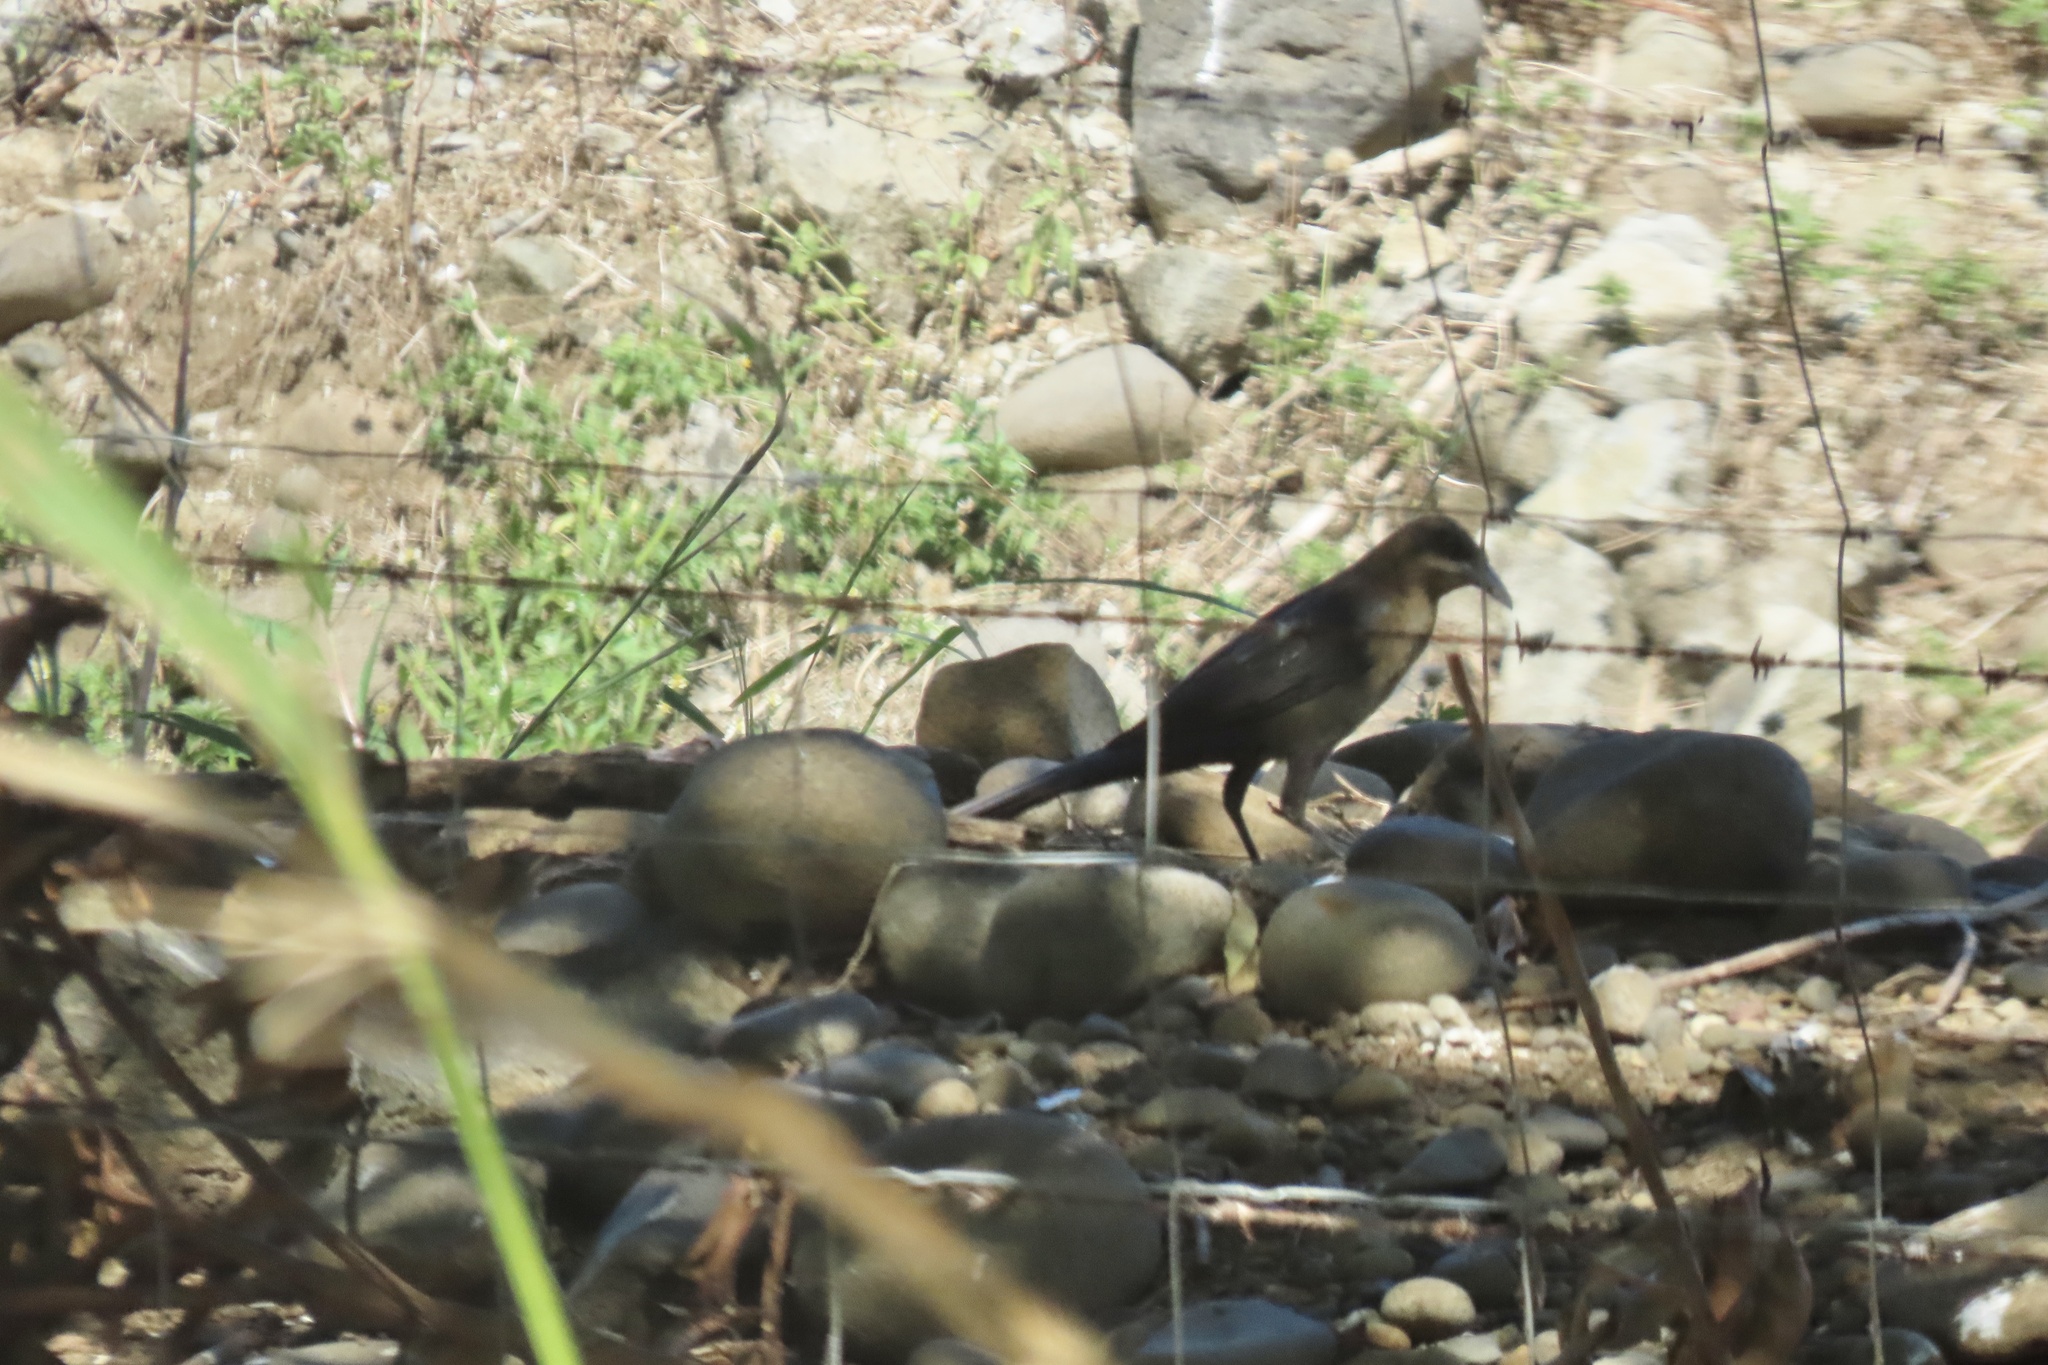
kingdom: Animalia
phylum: Chordata
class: Aves
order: Passeriformes
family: Icteridae
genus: Quiscalus
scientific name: Quiscalus mexicanus
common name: Great-tailed grackle
